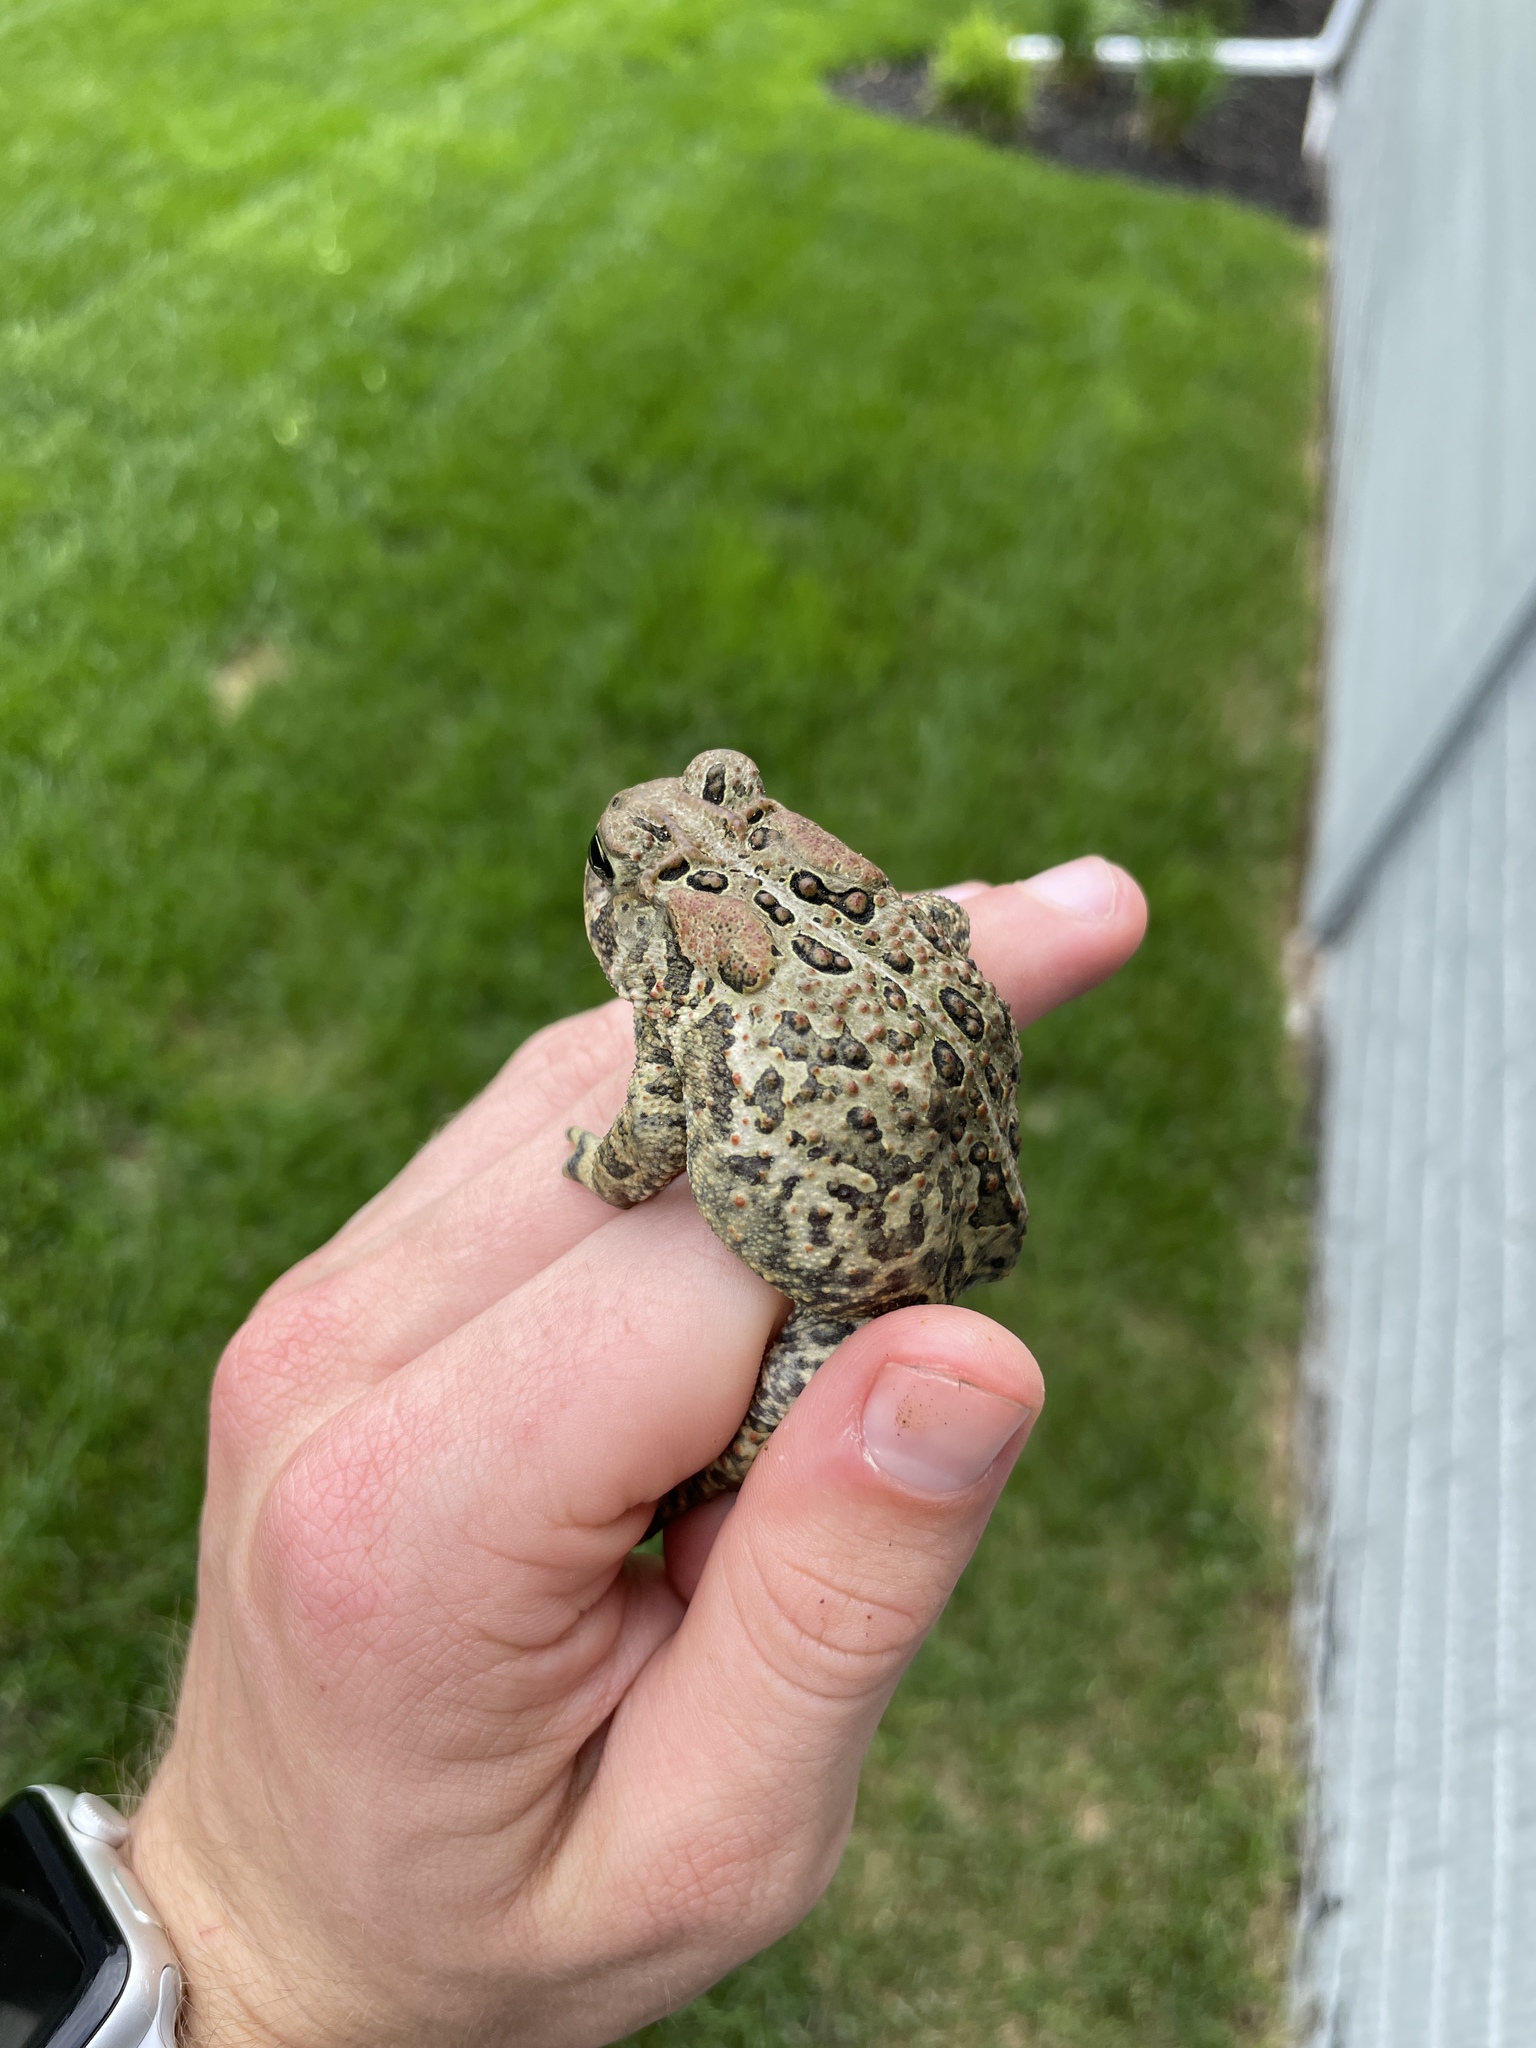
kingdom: Animalia
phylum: Chordata
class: Amphibia
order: Anura
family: Bufonidae
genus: Anaxyrus
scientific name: Anaxyrus americanus
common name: American toad
